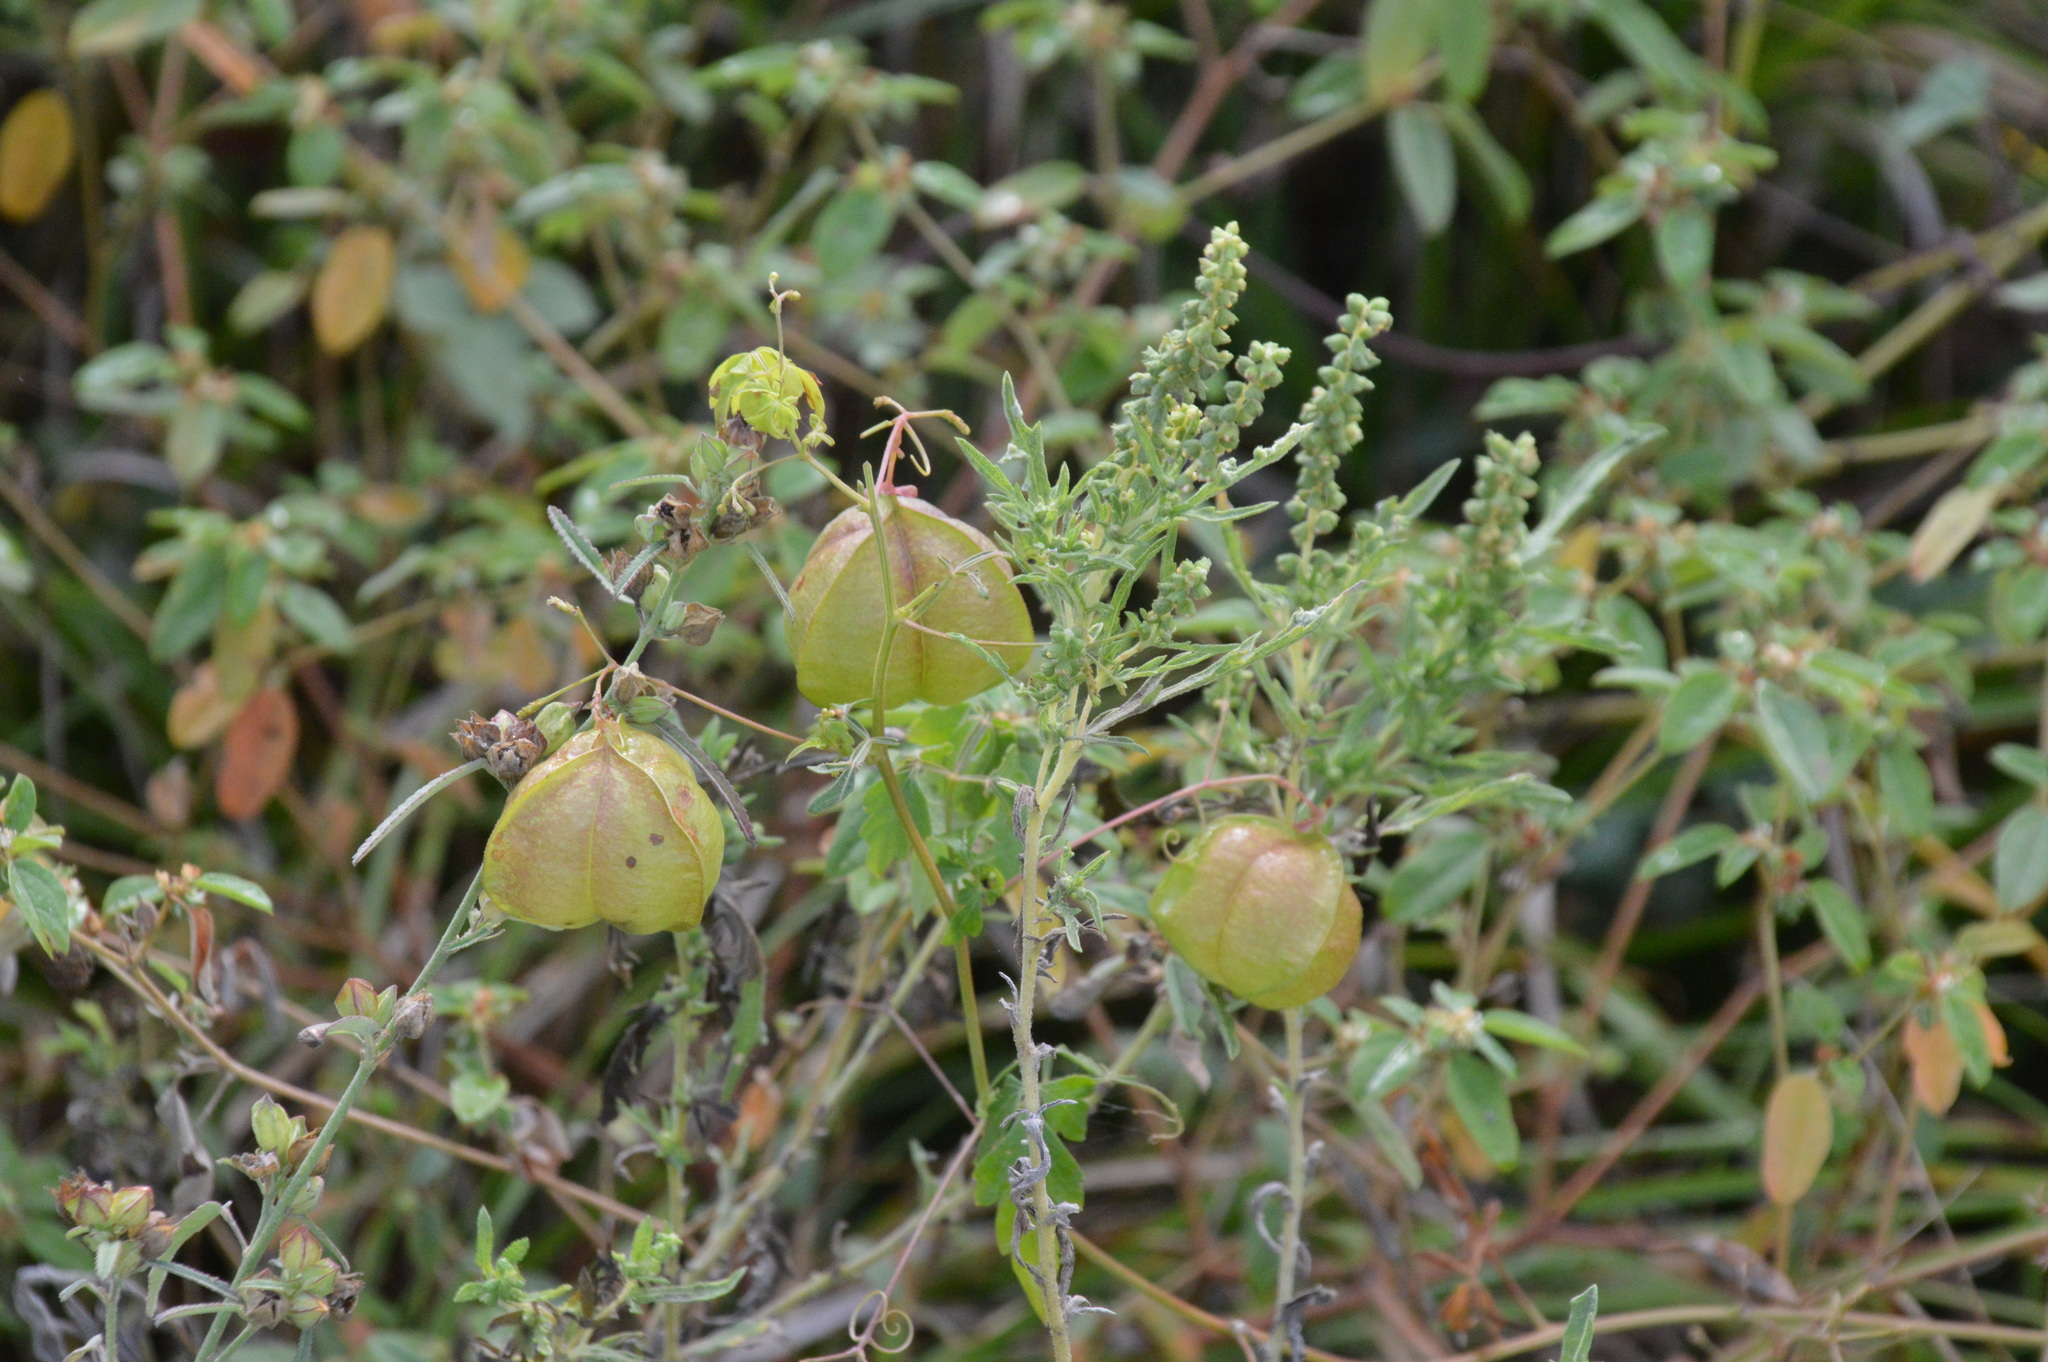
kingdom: Plantae
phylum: Tracheophyta
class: Magnoliopsida
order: Sapindales
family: Sapindaceae
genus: Cardiospermum
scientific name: Cardiospermum halicacabum
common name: Balloon vine
